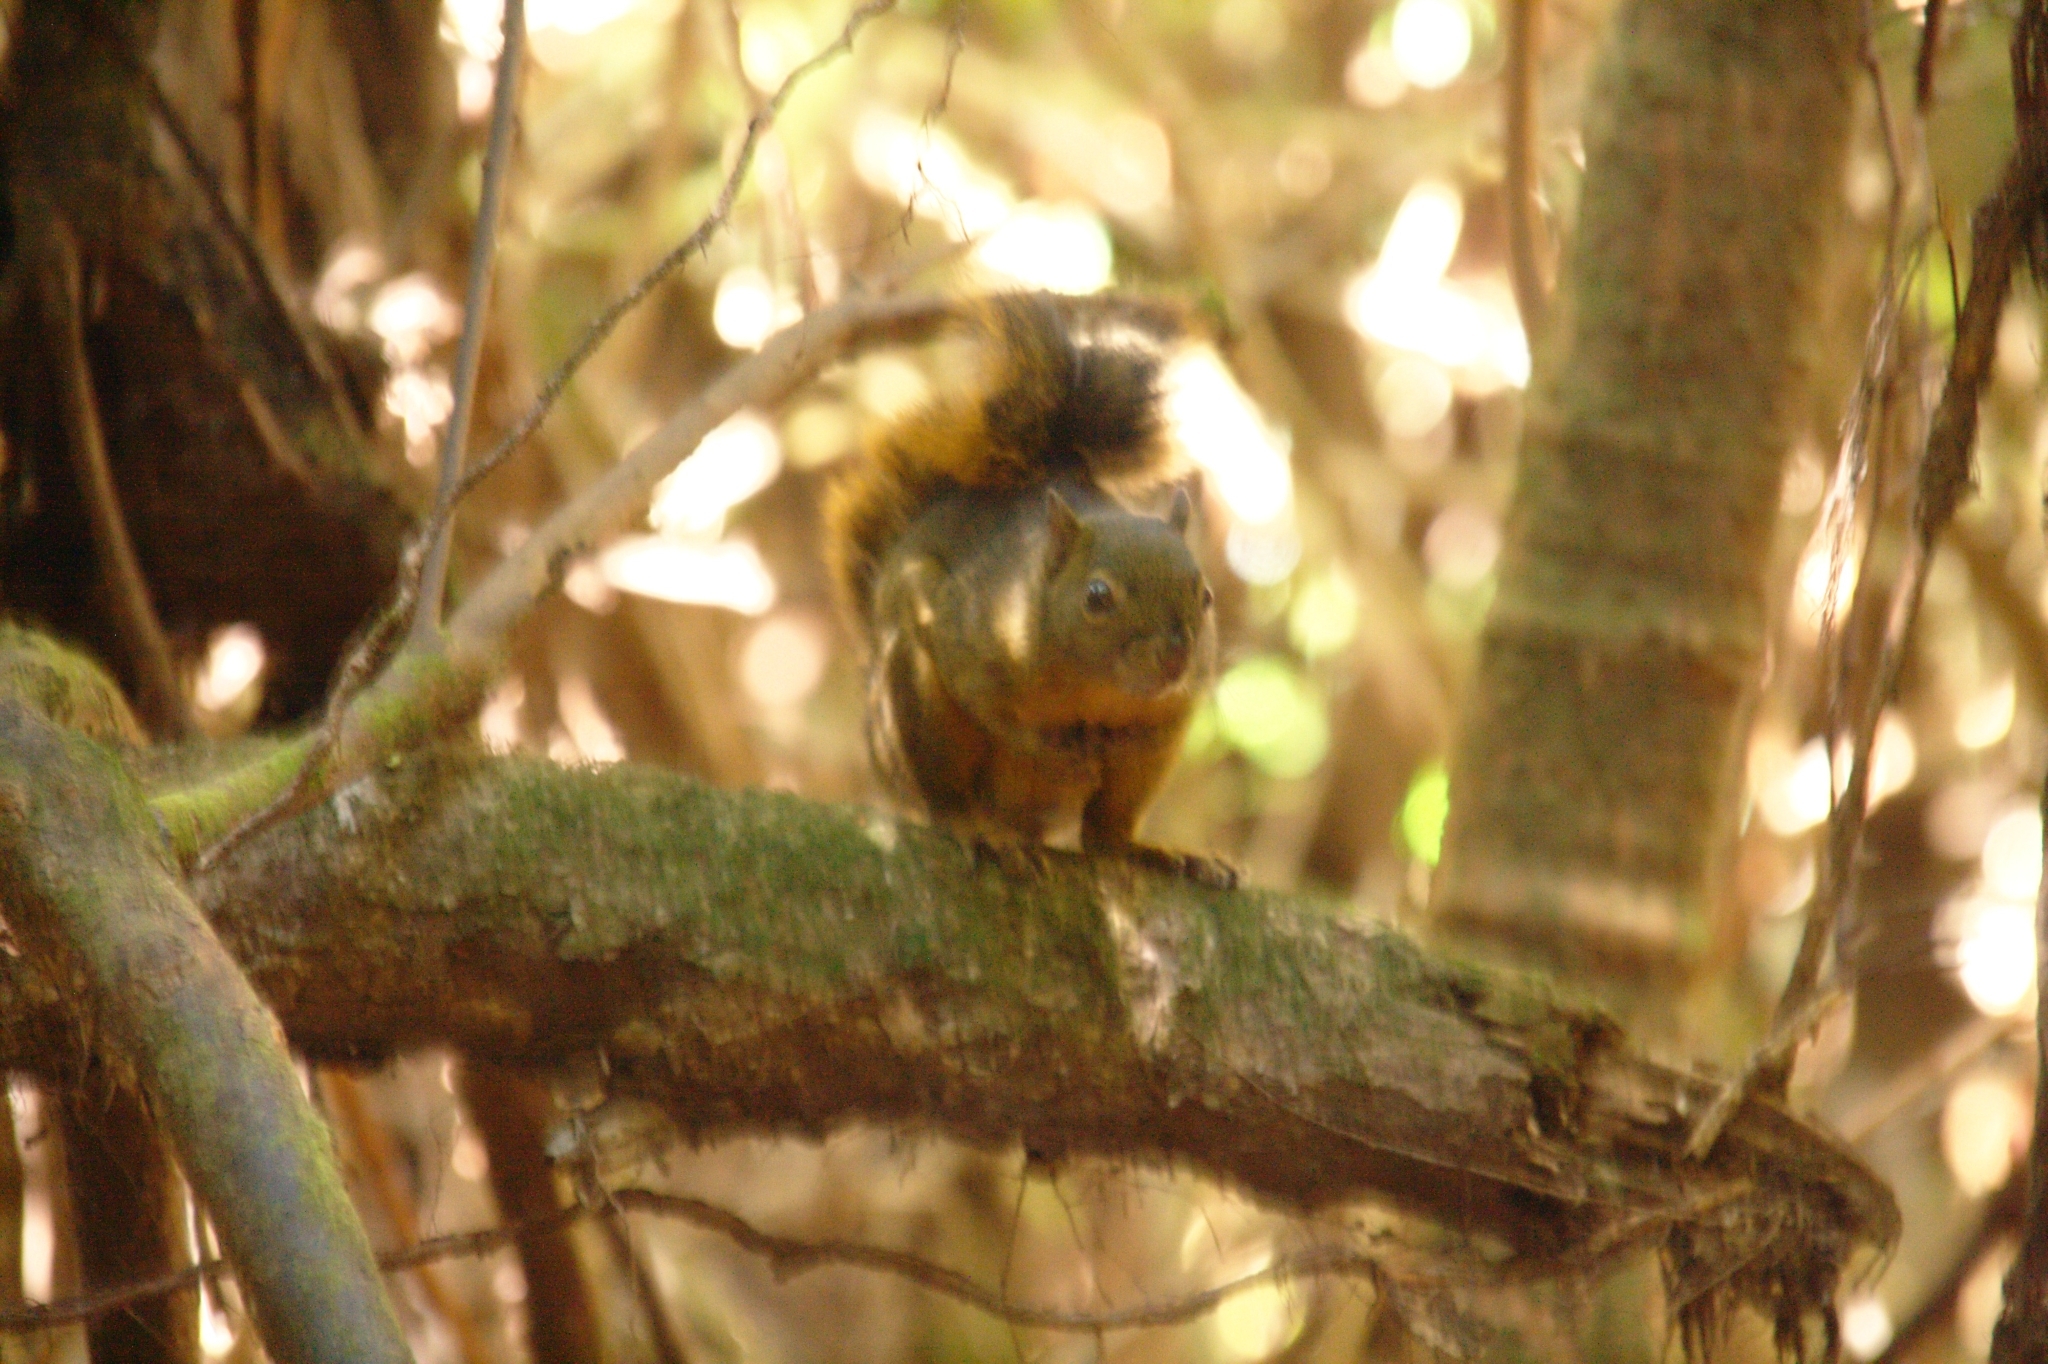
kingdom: Animalia
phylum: Chordata
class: Mammalia
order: Rodentia
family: Sciuridae
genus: Sciurus
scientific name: Sciurus granatensis
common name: Red-tailed squirrel
